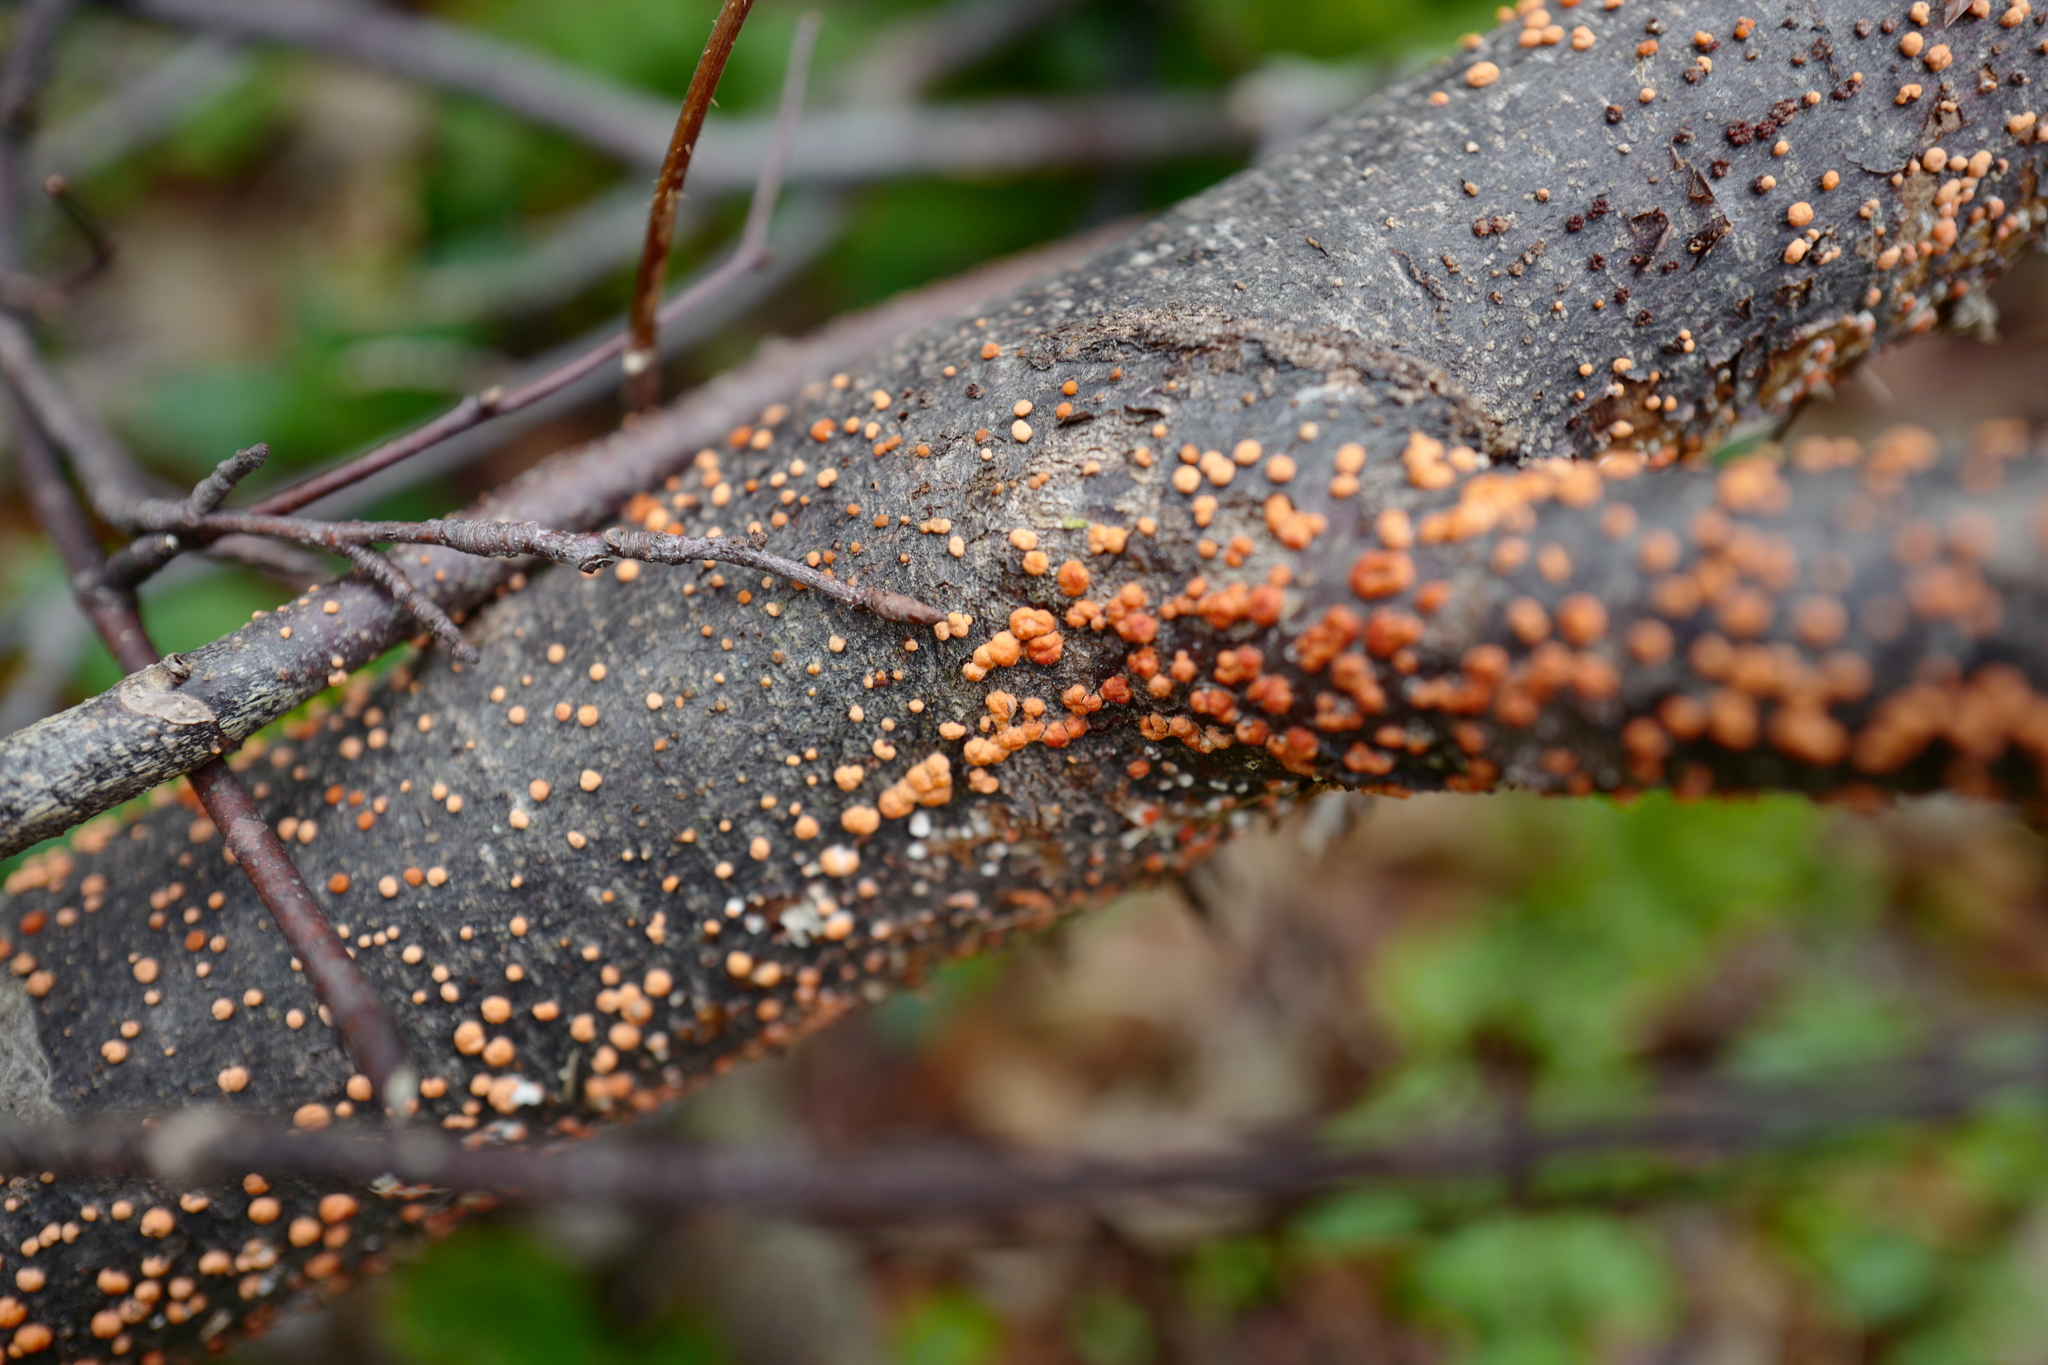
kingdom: Fungi
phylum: Ascomycota
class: Sordariomycetes
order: Hypocreales
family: Nectriaceae
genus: Nectria
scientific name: Nectria cinnabarina
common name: Coral spot
